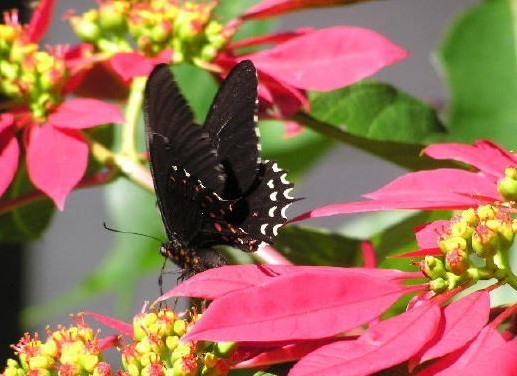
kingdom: Animalia
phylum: Arthropoda
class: Insecta
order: Lepidoptera
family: Papilionidae
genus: Heraclides
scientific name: Heraclides
